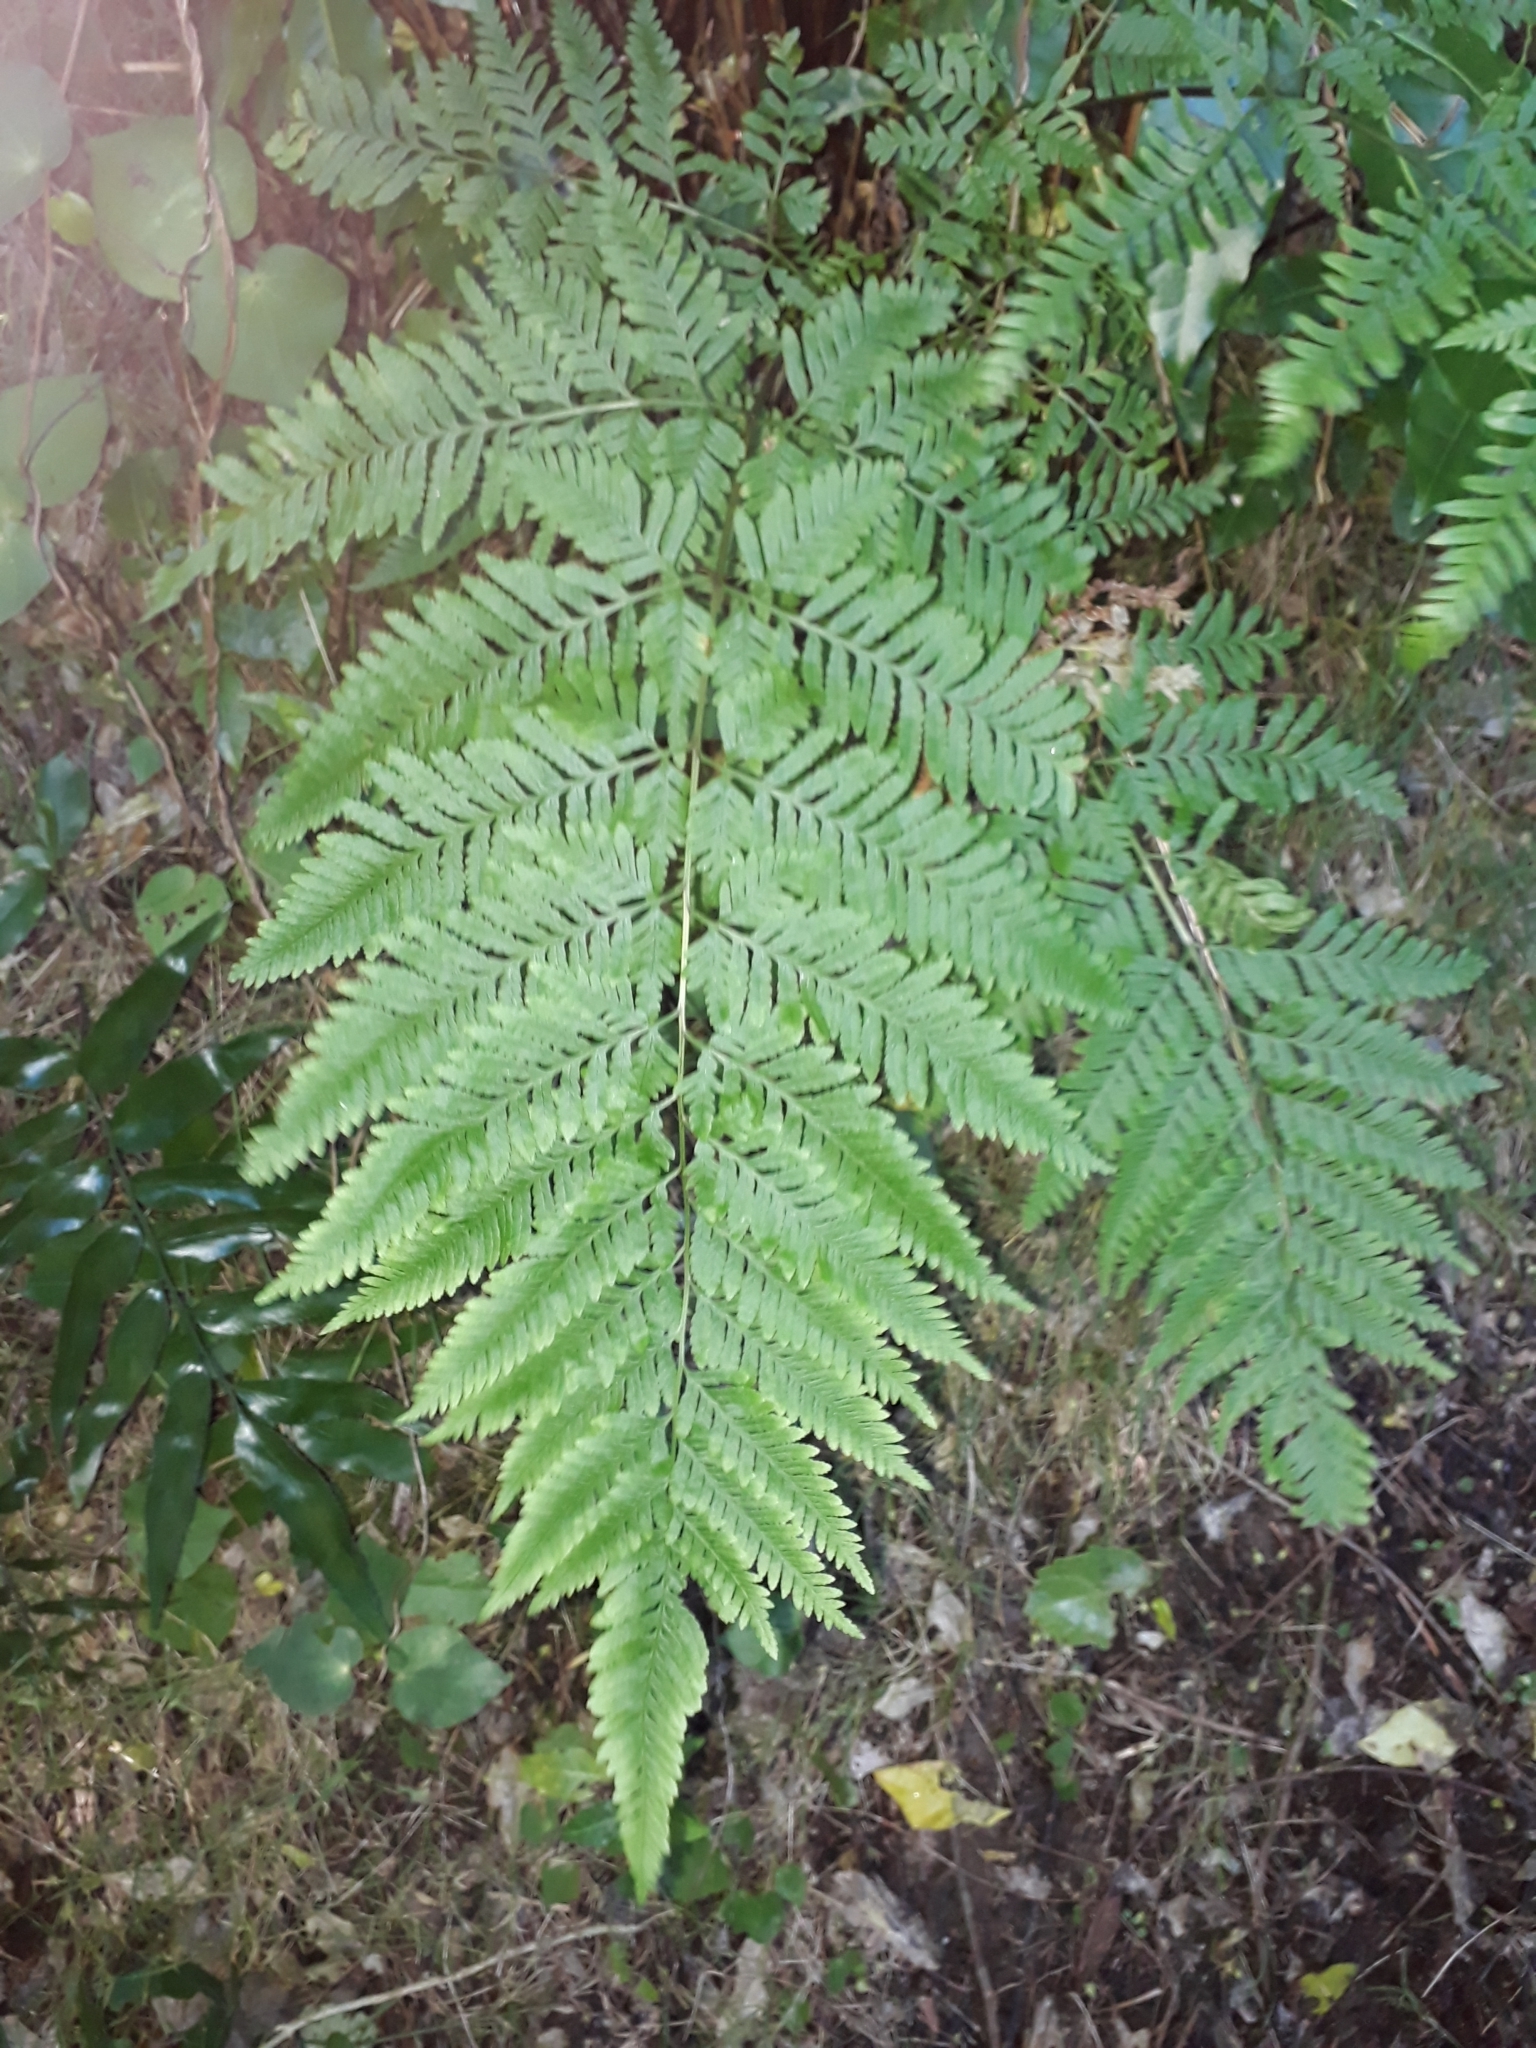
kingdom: Plantae
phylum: Tracheophyta
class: Polypodiopsida
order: Polypodiales
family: Pteridaceae
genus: Pteris
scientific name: Pteris tremula
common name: Australian brake
